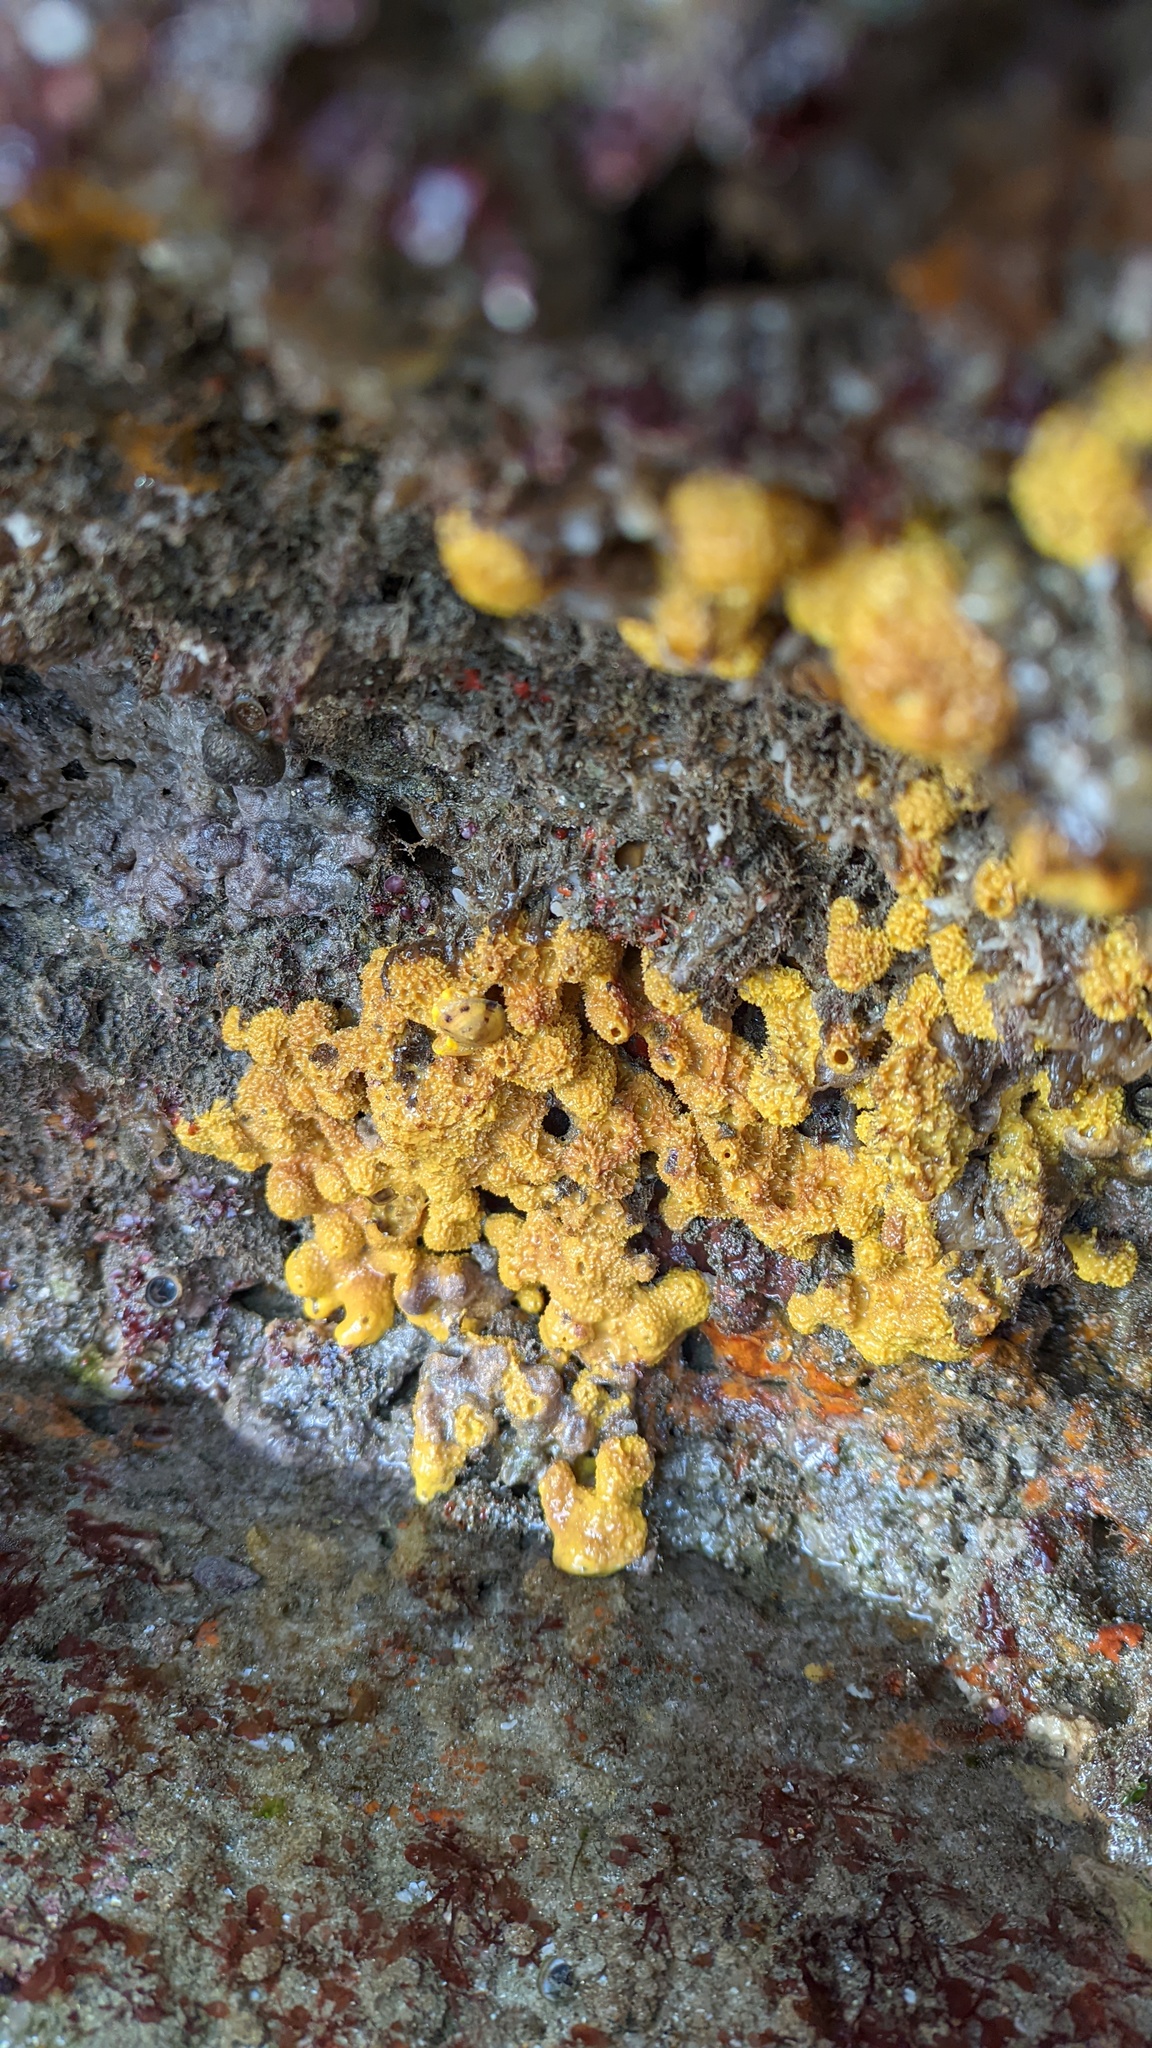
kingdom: Animalia
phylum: Porifera
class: Demospongiae
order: Verongiida
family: Aplysinidae
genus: Aiolochroia
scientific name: Aiolochroia thiona
